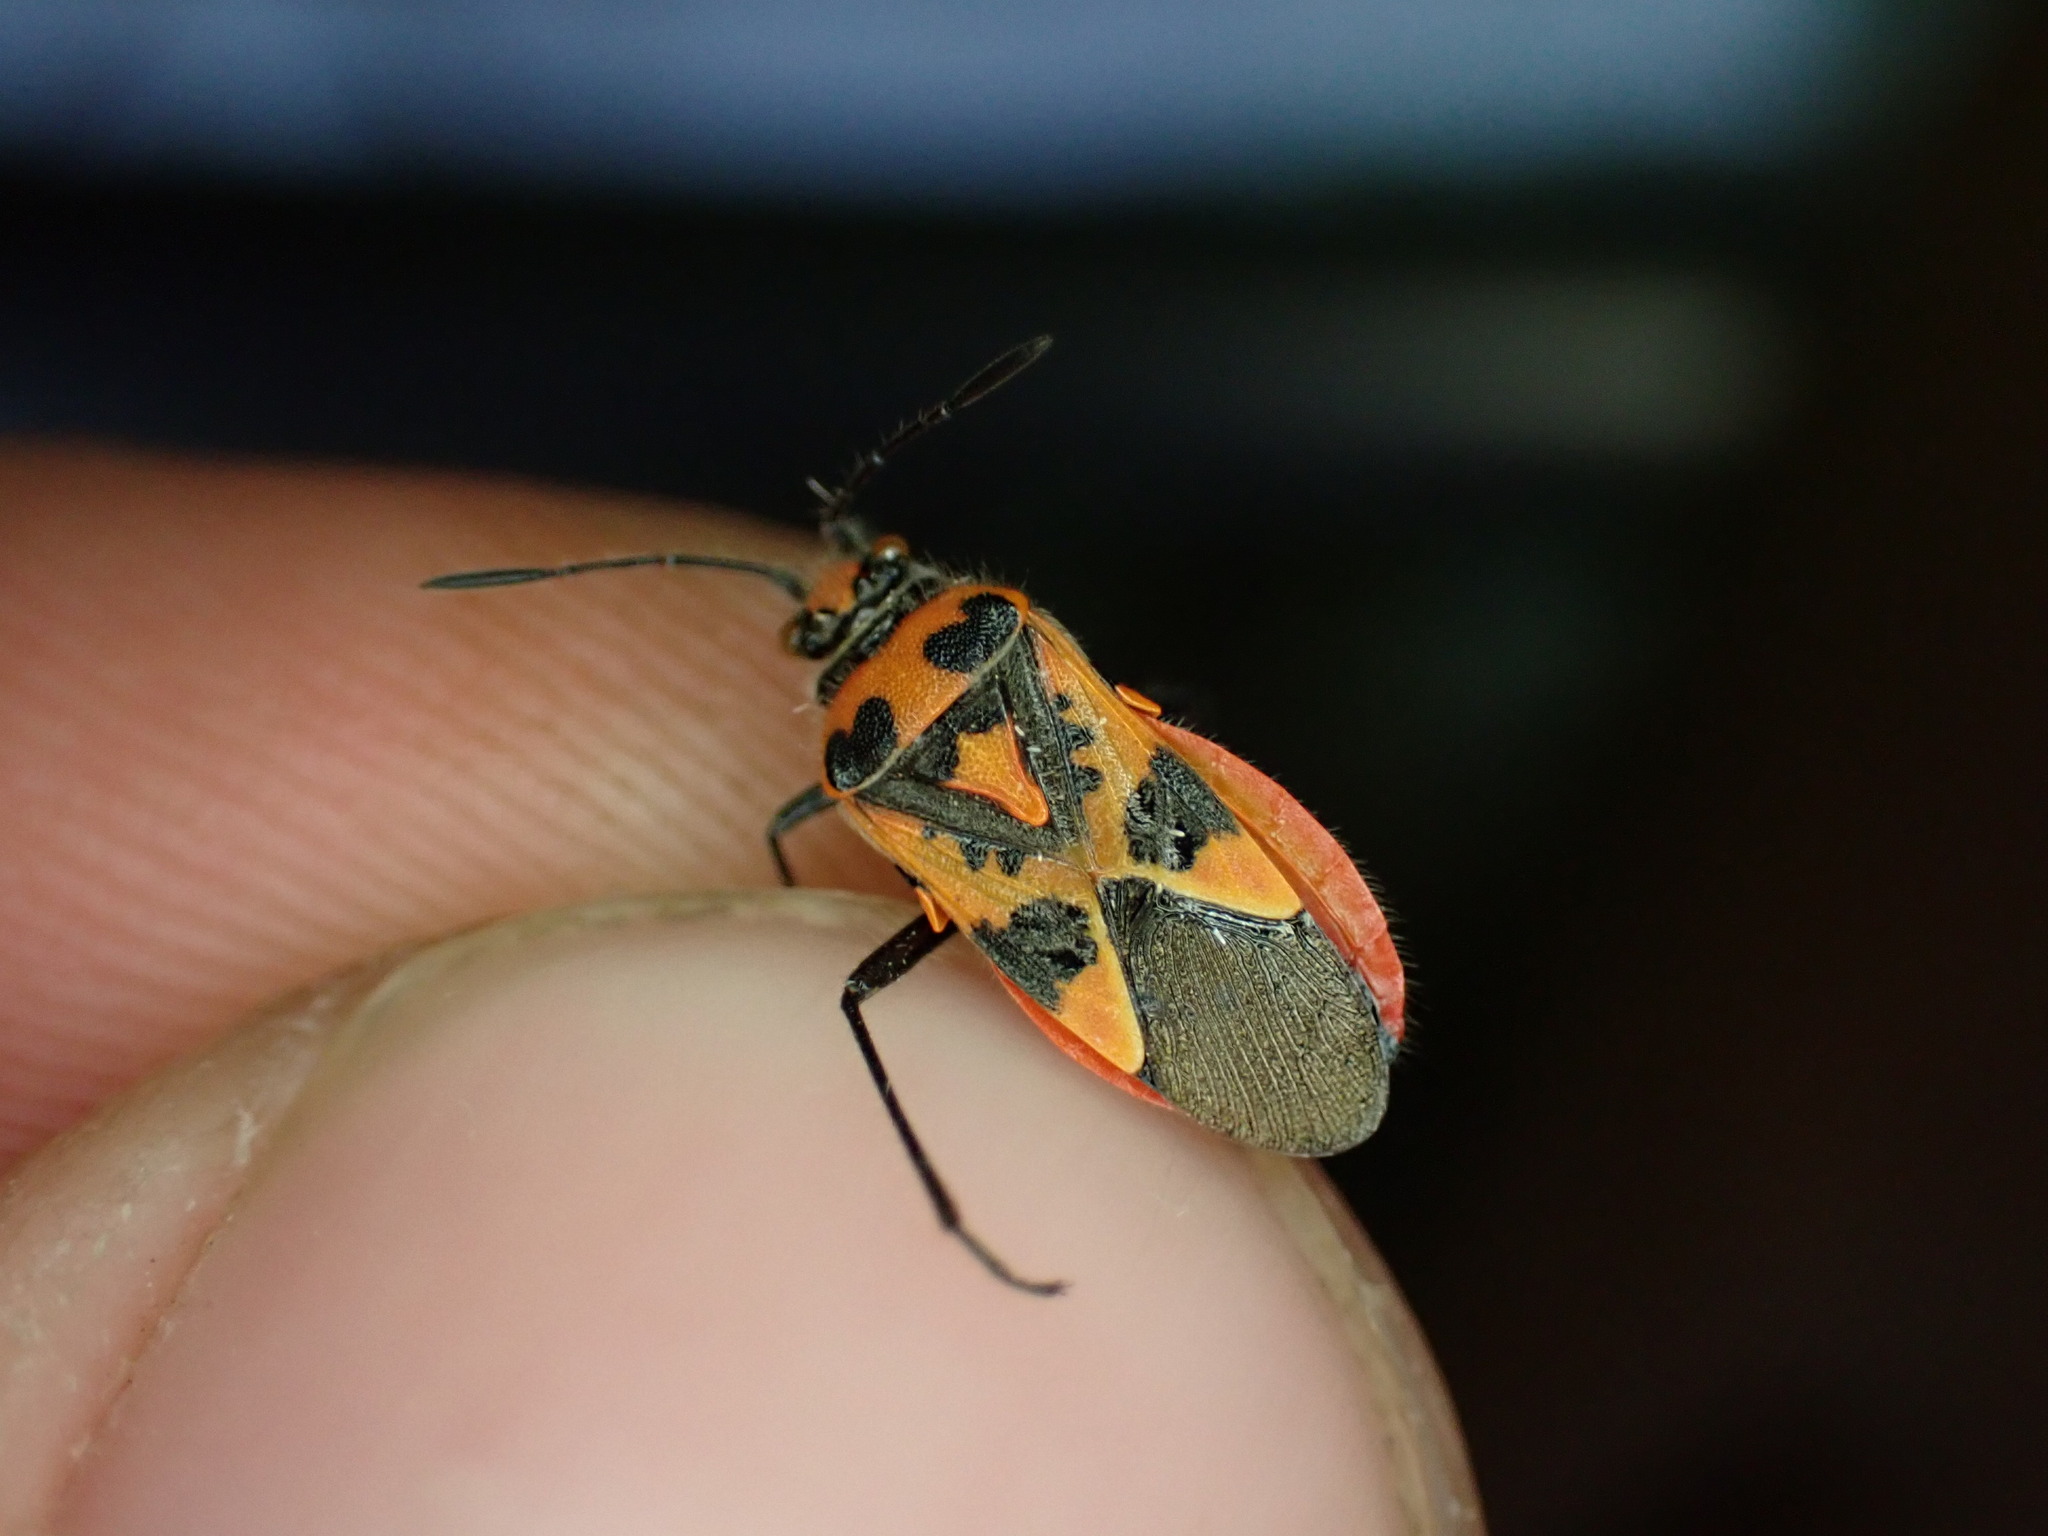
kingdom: Animalia
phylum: Arthropoda
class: Insecta
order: Hemiptera
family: Rhopalidae
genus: Corizus
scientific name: Corizus hyoscyami
